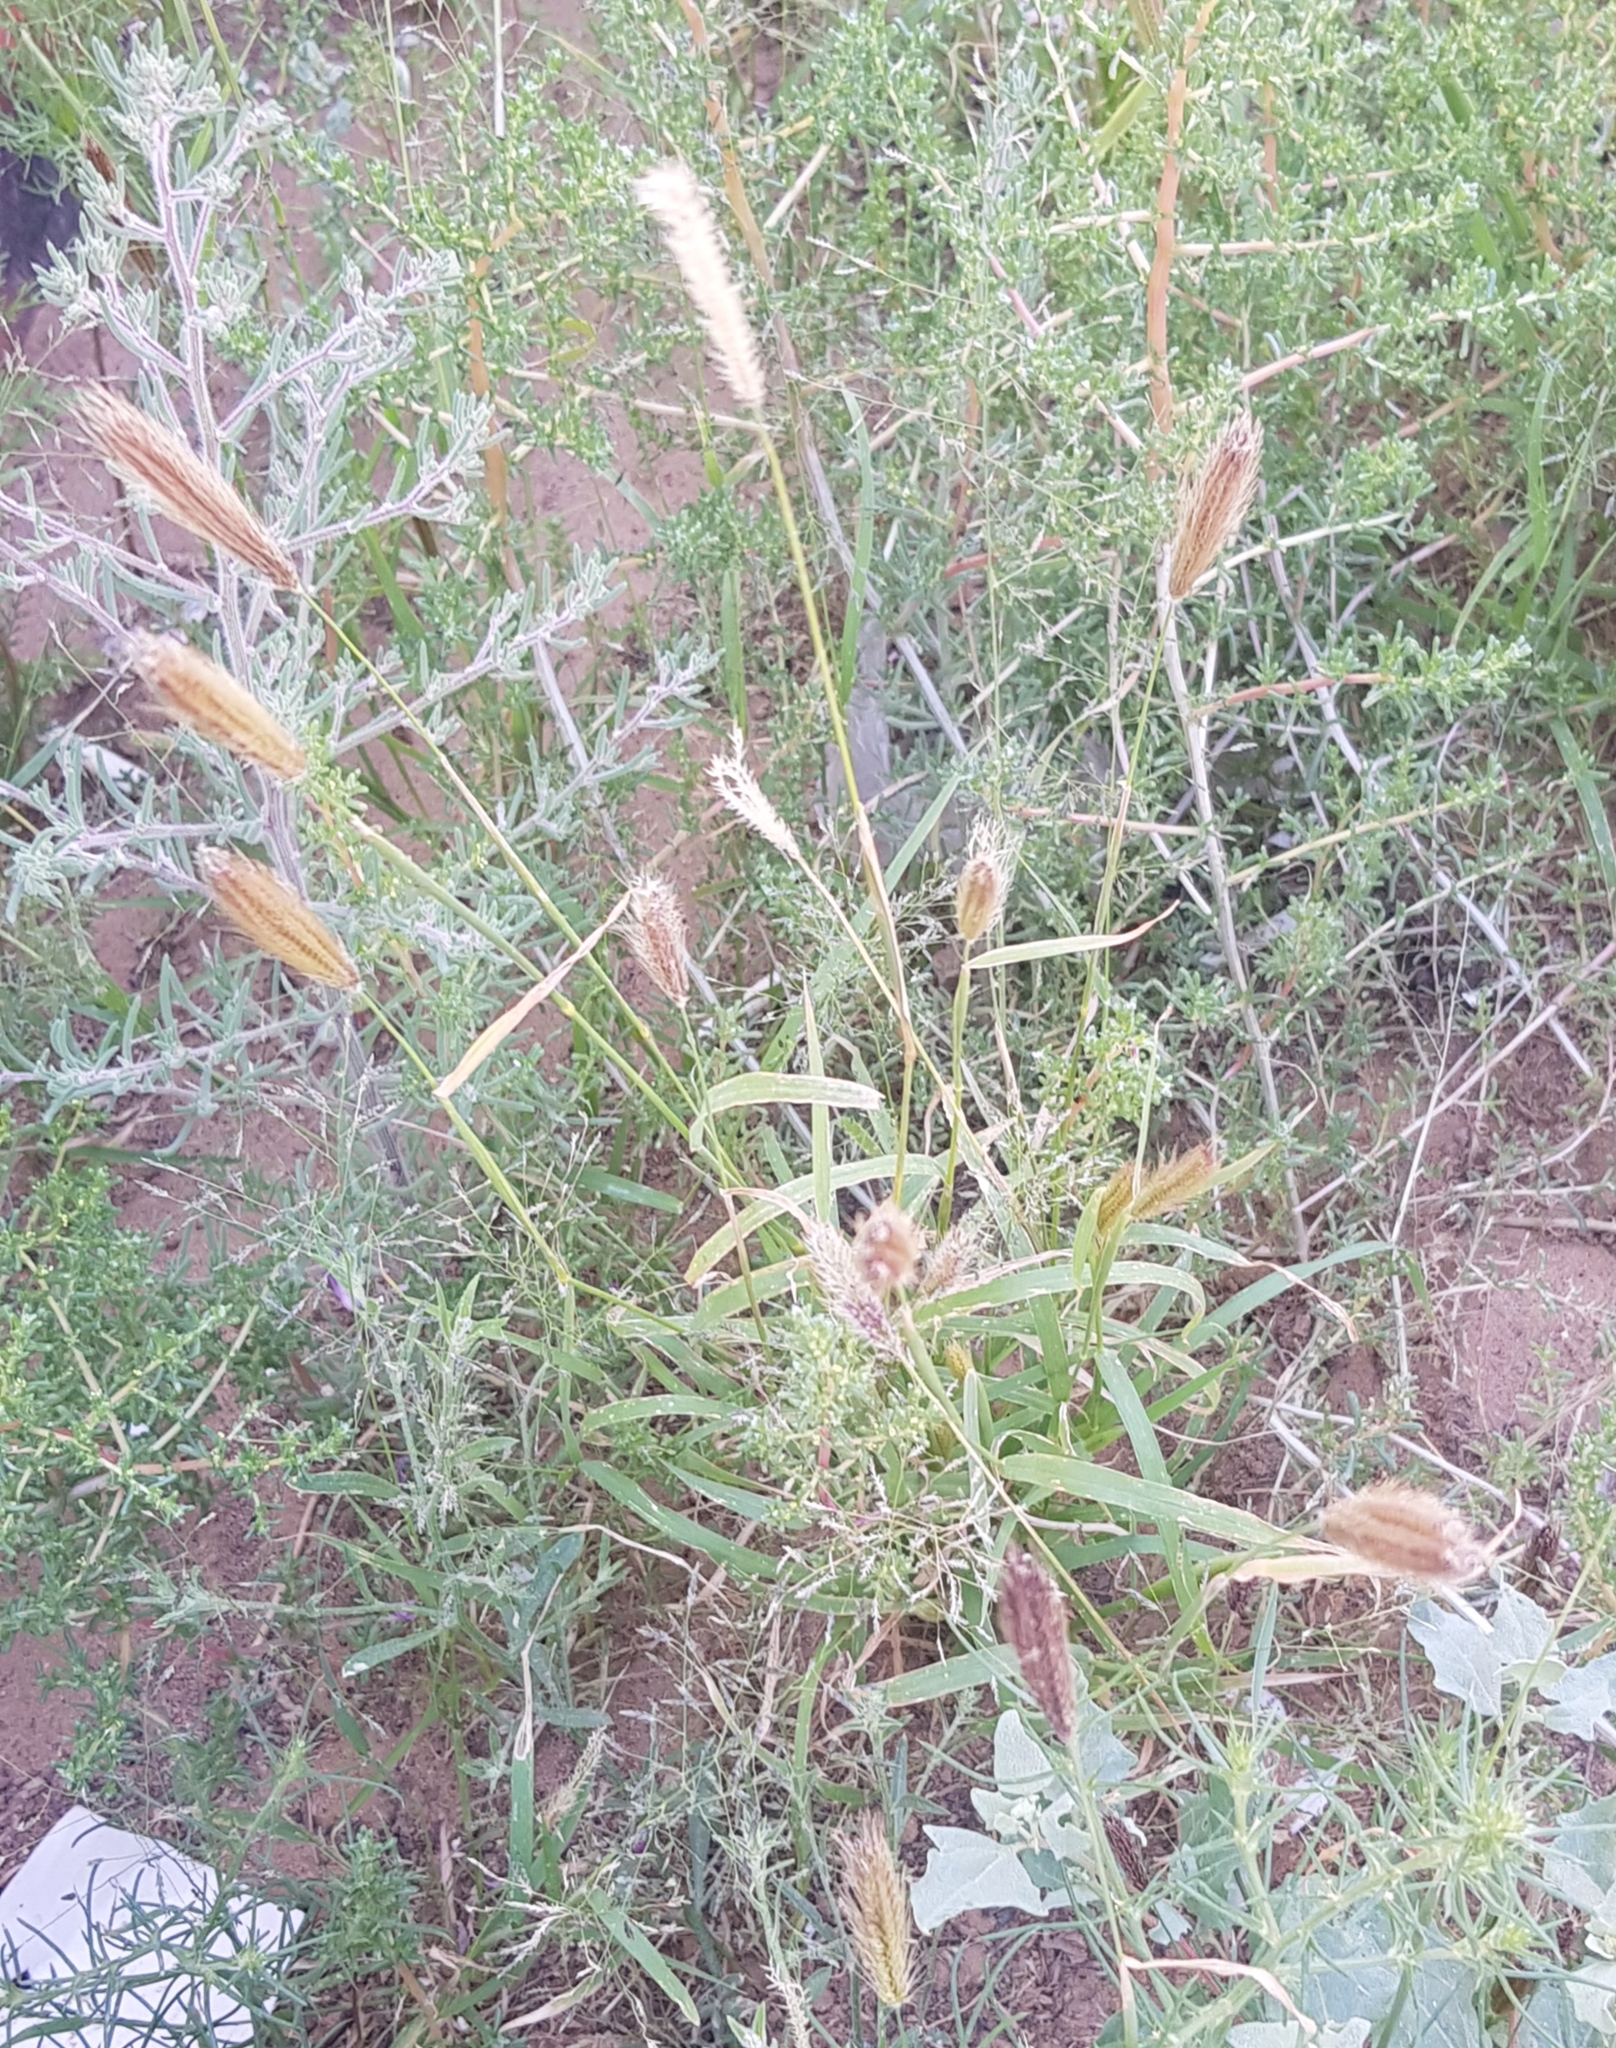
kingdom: Plantae
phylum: Tracheophyta
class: Liliopsida
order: Poales
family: Poaceae
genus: Chloris
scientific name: Chloris virgata
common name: Feathery rhodes-grass
